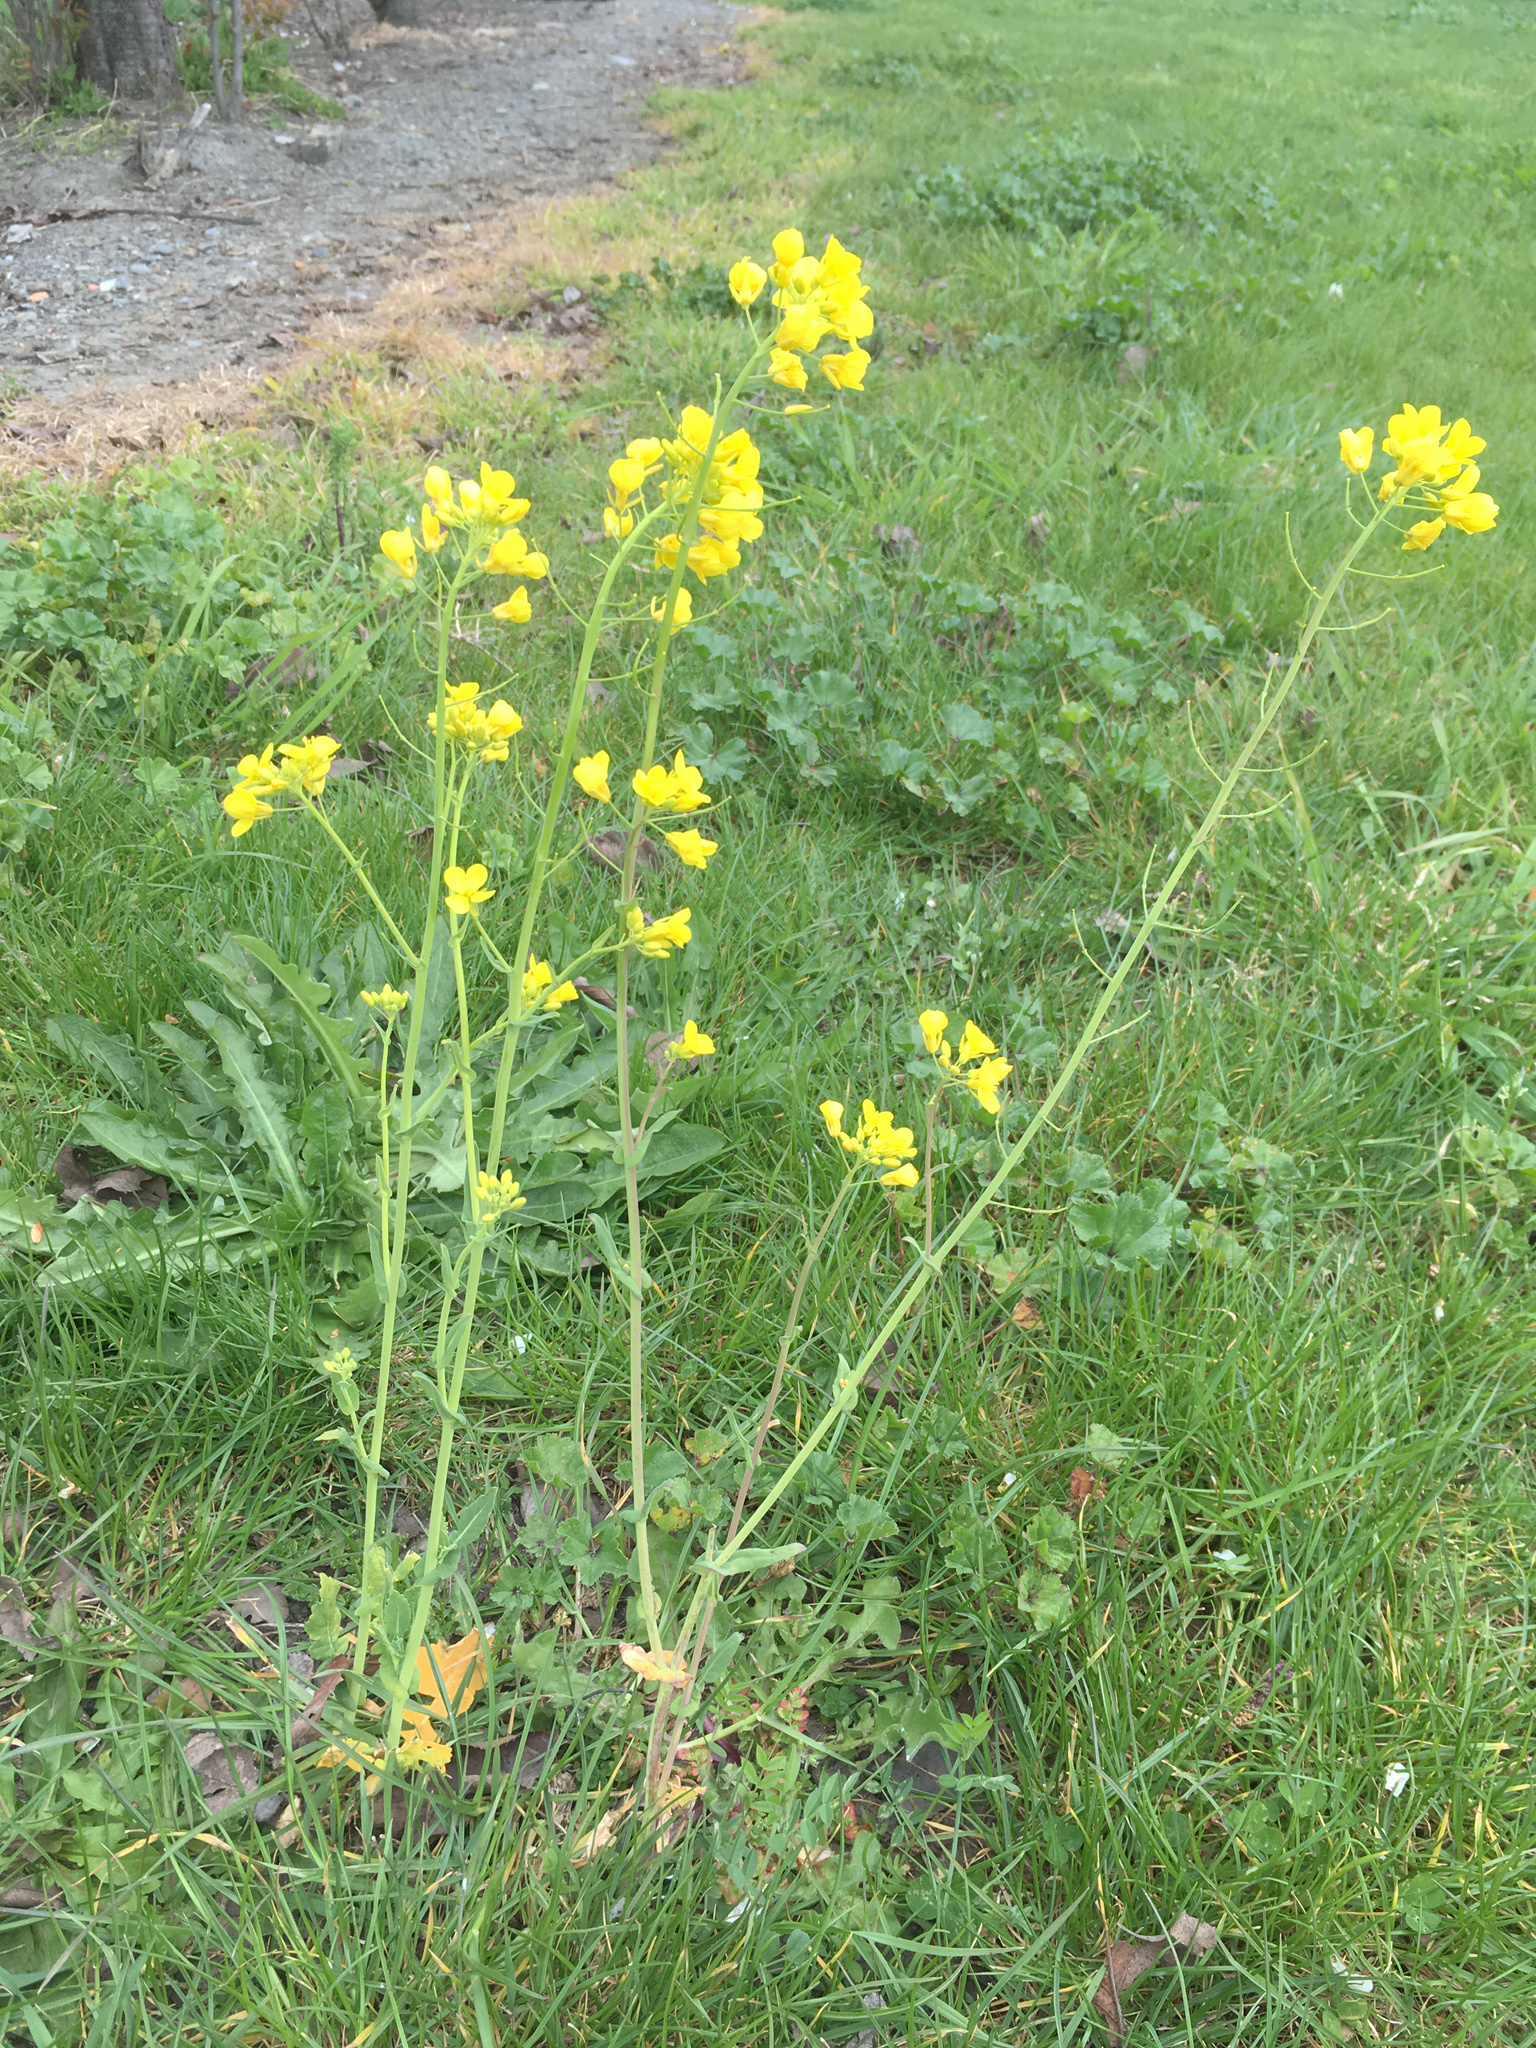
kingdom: Plantae
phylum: Tracheophyta
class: Magnoliopsida
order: Brassicales
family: Brassicaceae
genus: Brassica
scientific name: Brassica rapa
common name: Field mustard
